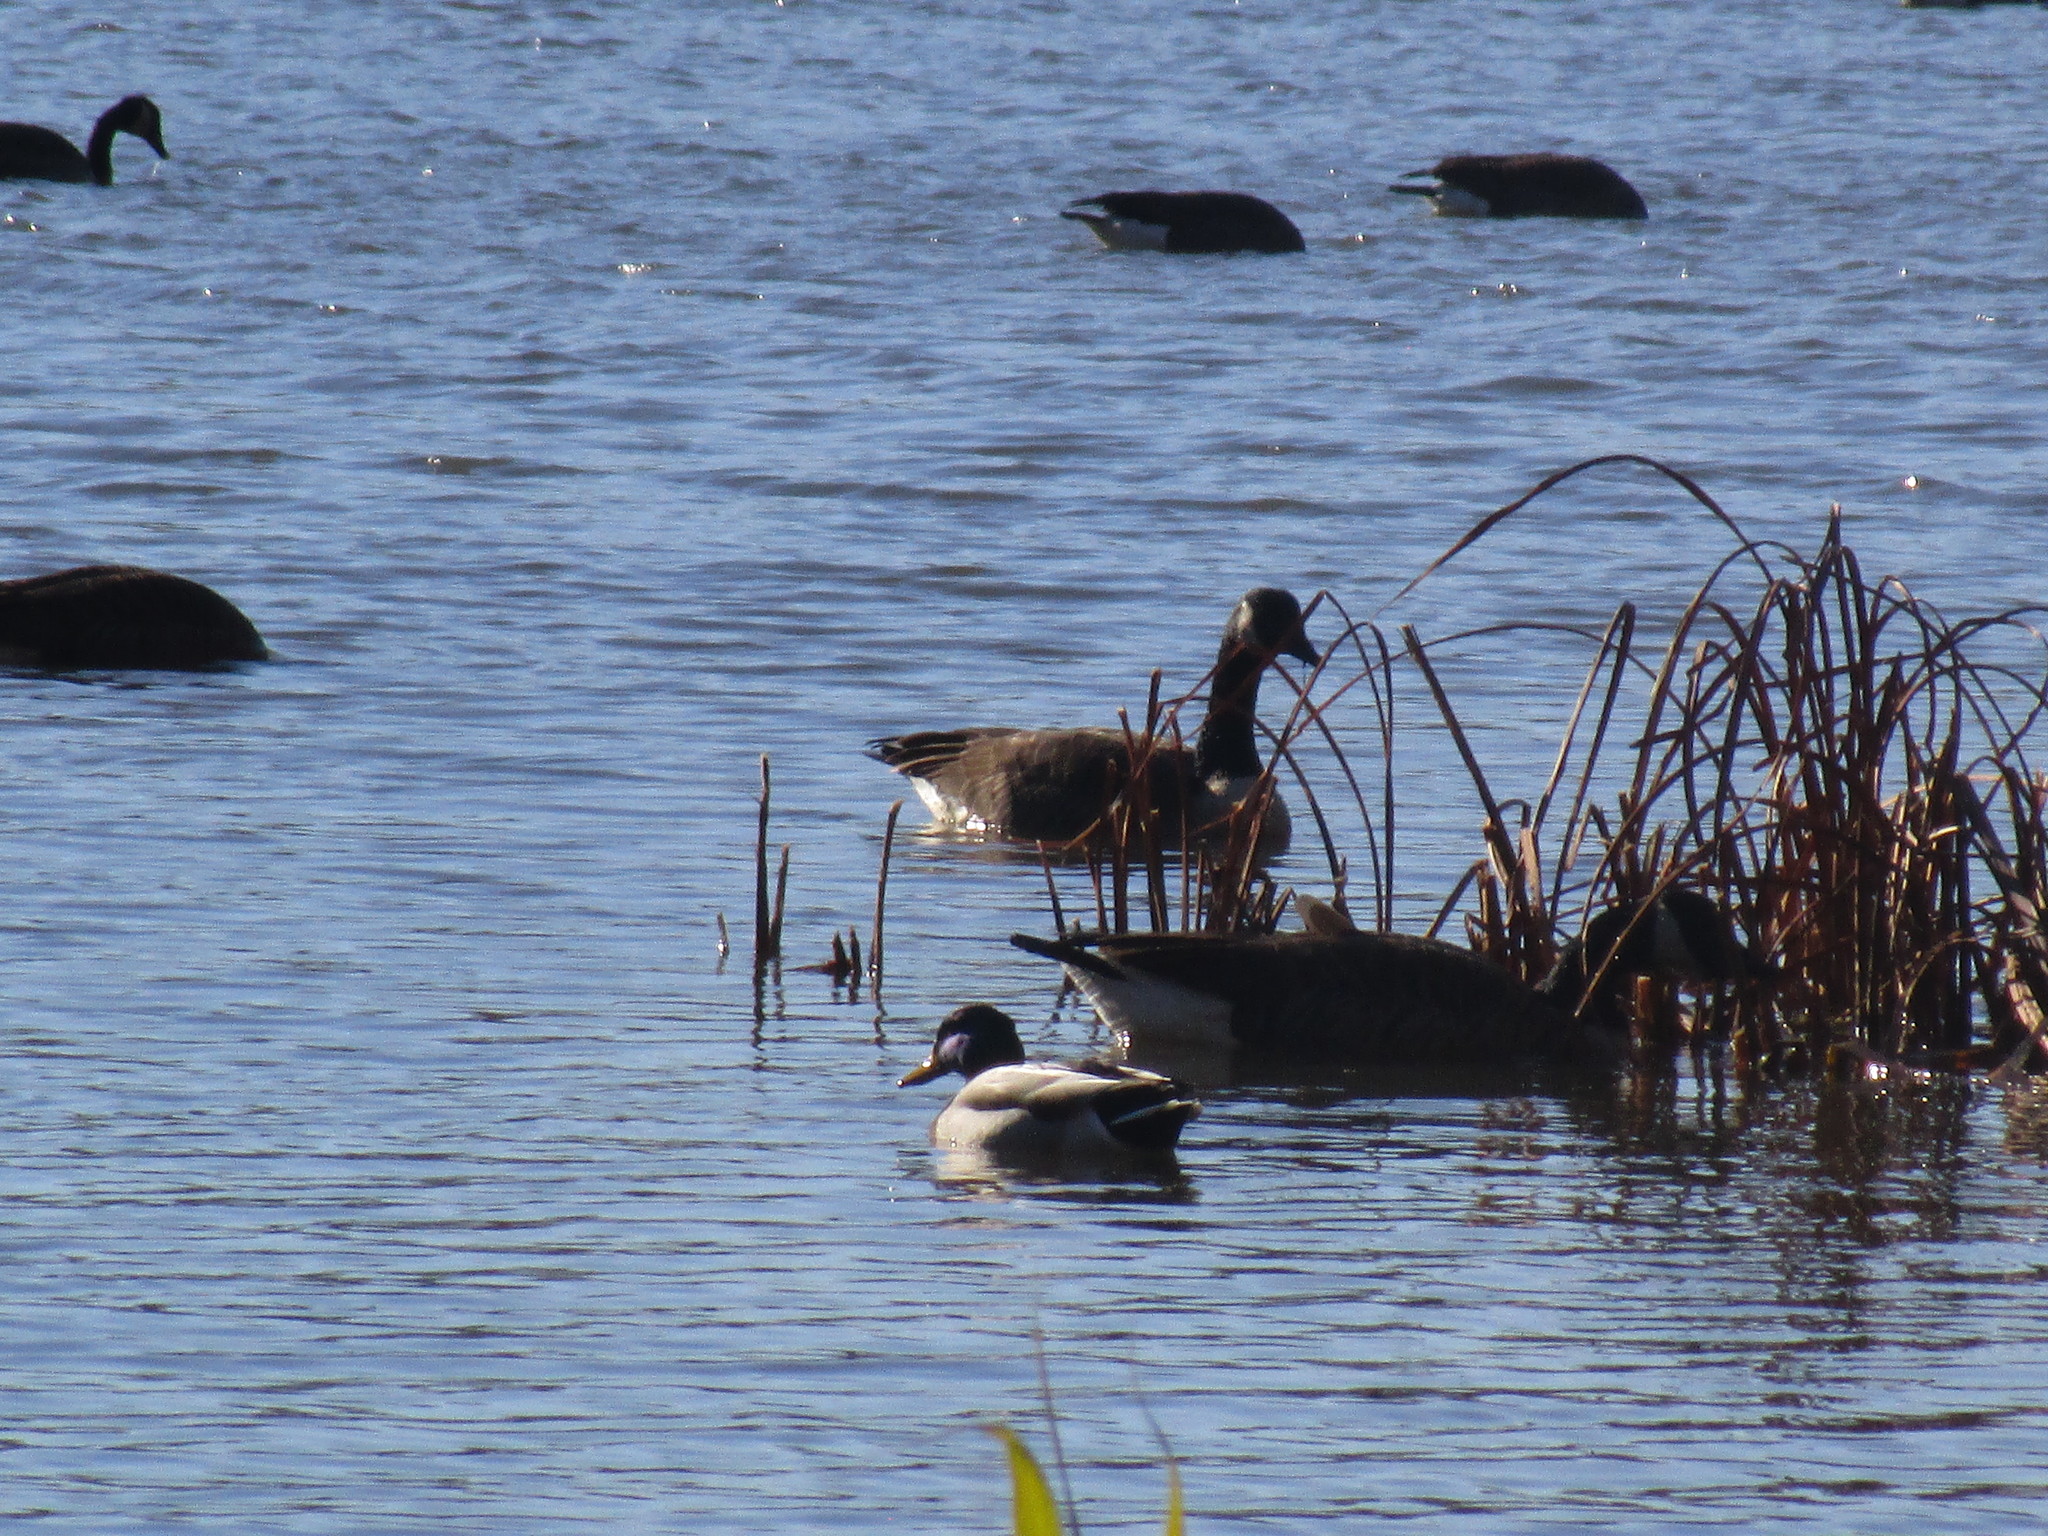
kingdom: Animalia
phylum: Chordata
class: Aves
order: Anseriformes
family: Anatidae
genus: Branta
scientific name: Branta canadensis
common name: Canada goose
